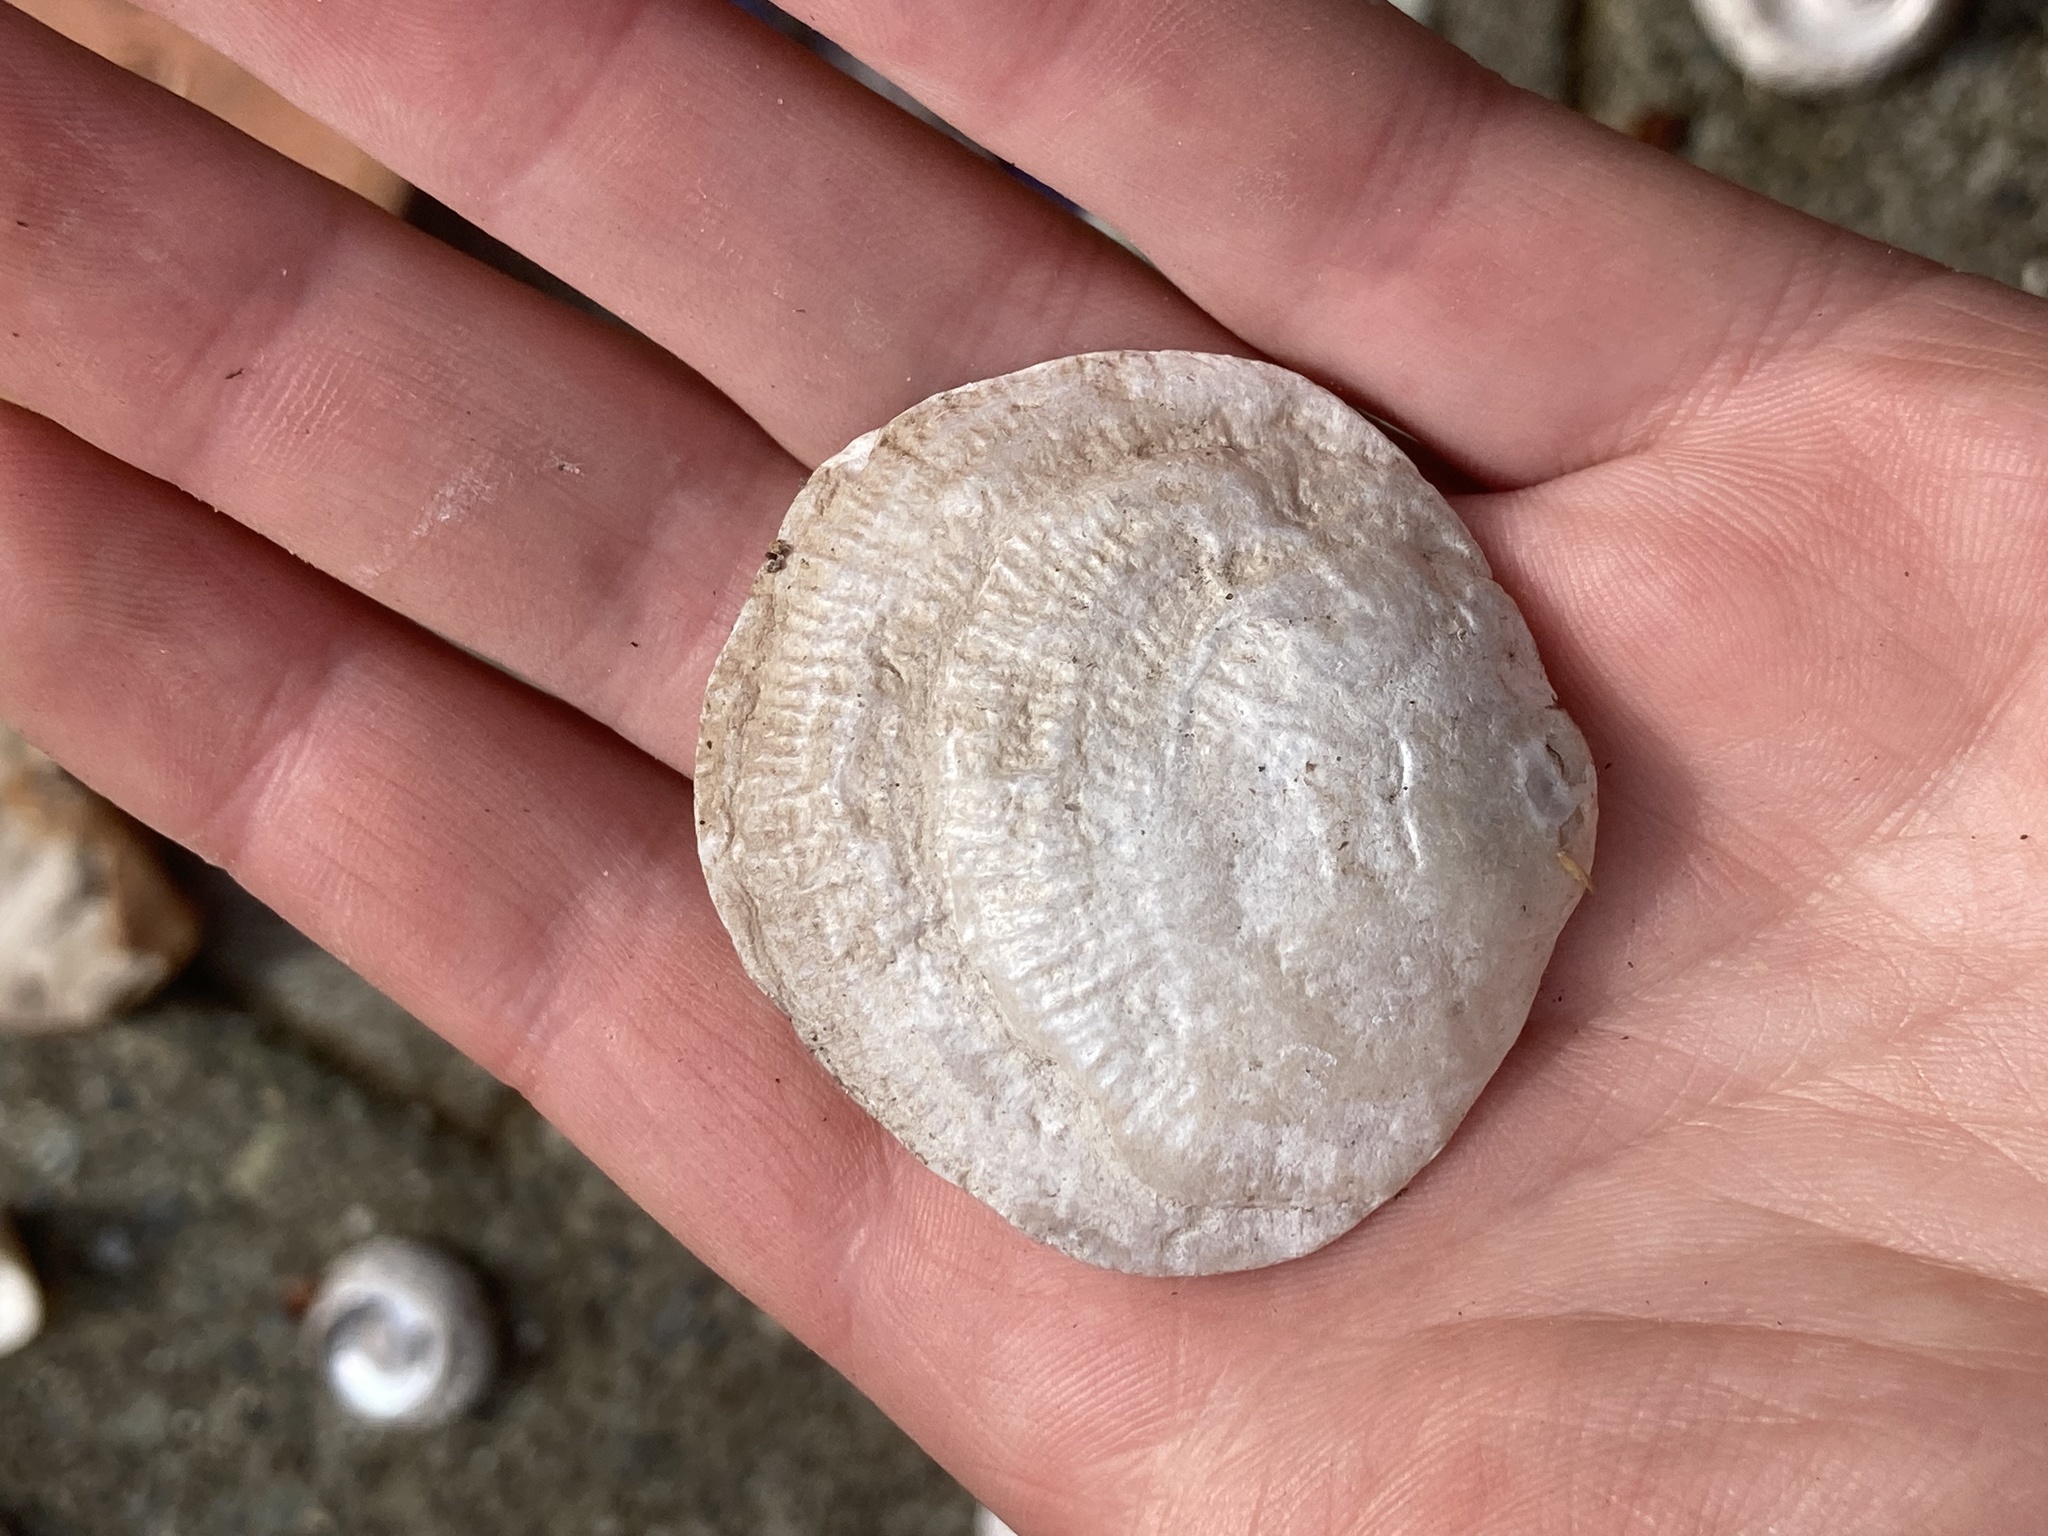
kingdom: Animalia
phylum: Mollusca
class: Bivalvia
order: Pectinida
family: Anomiidae
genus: Pododesmus
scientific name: Pododesmus macrochisma
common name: Alaska jingle
